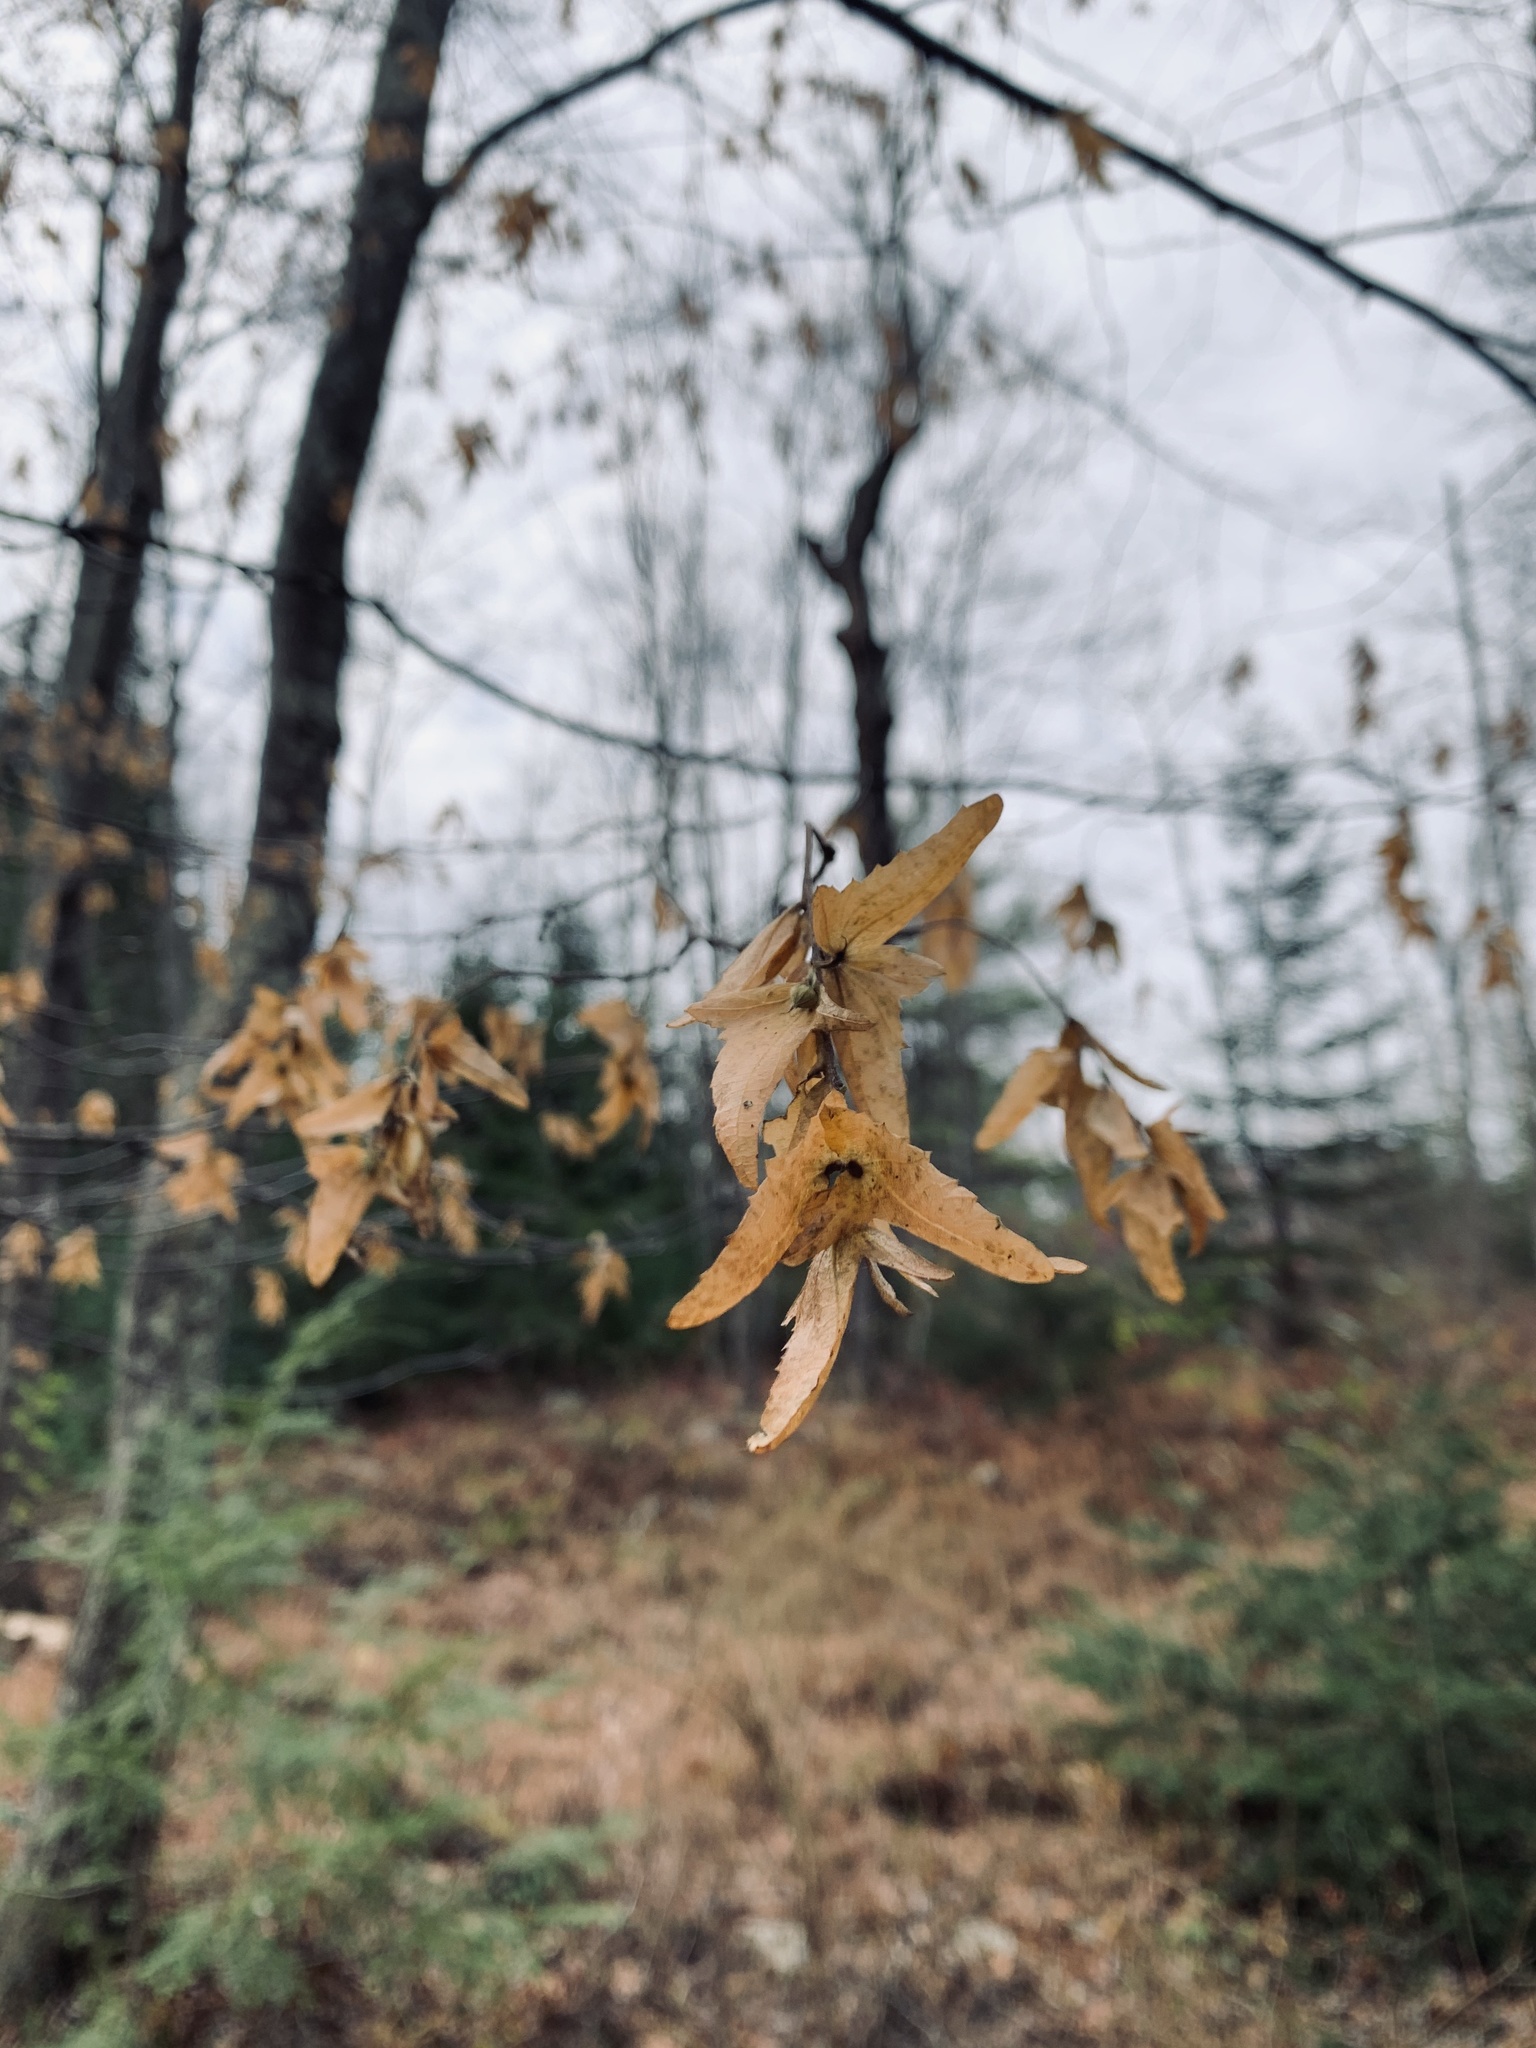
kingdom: Plantae
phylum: Tracheophyta
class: Magnoliopsida
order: Fagales
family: Betulaceae
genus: Carpinus
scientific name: Carpinus caroliniana
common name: American hornbeam
